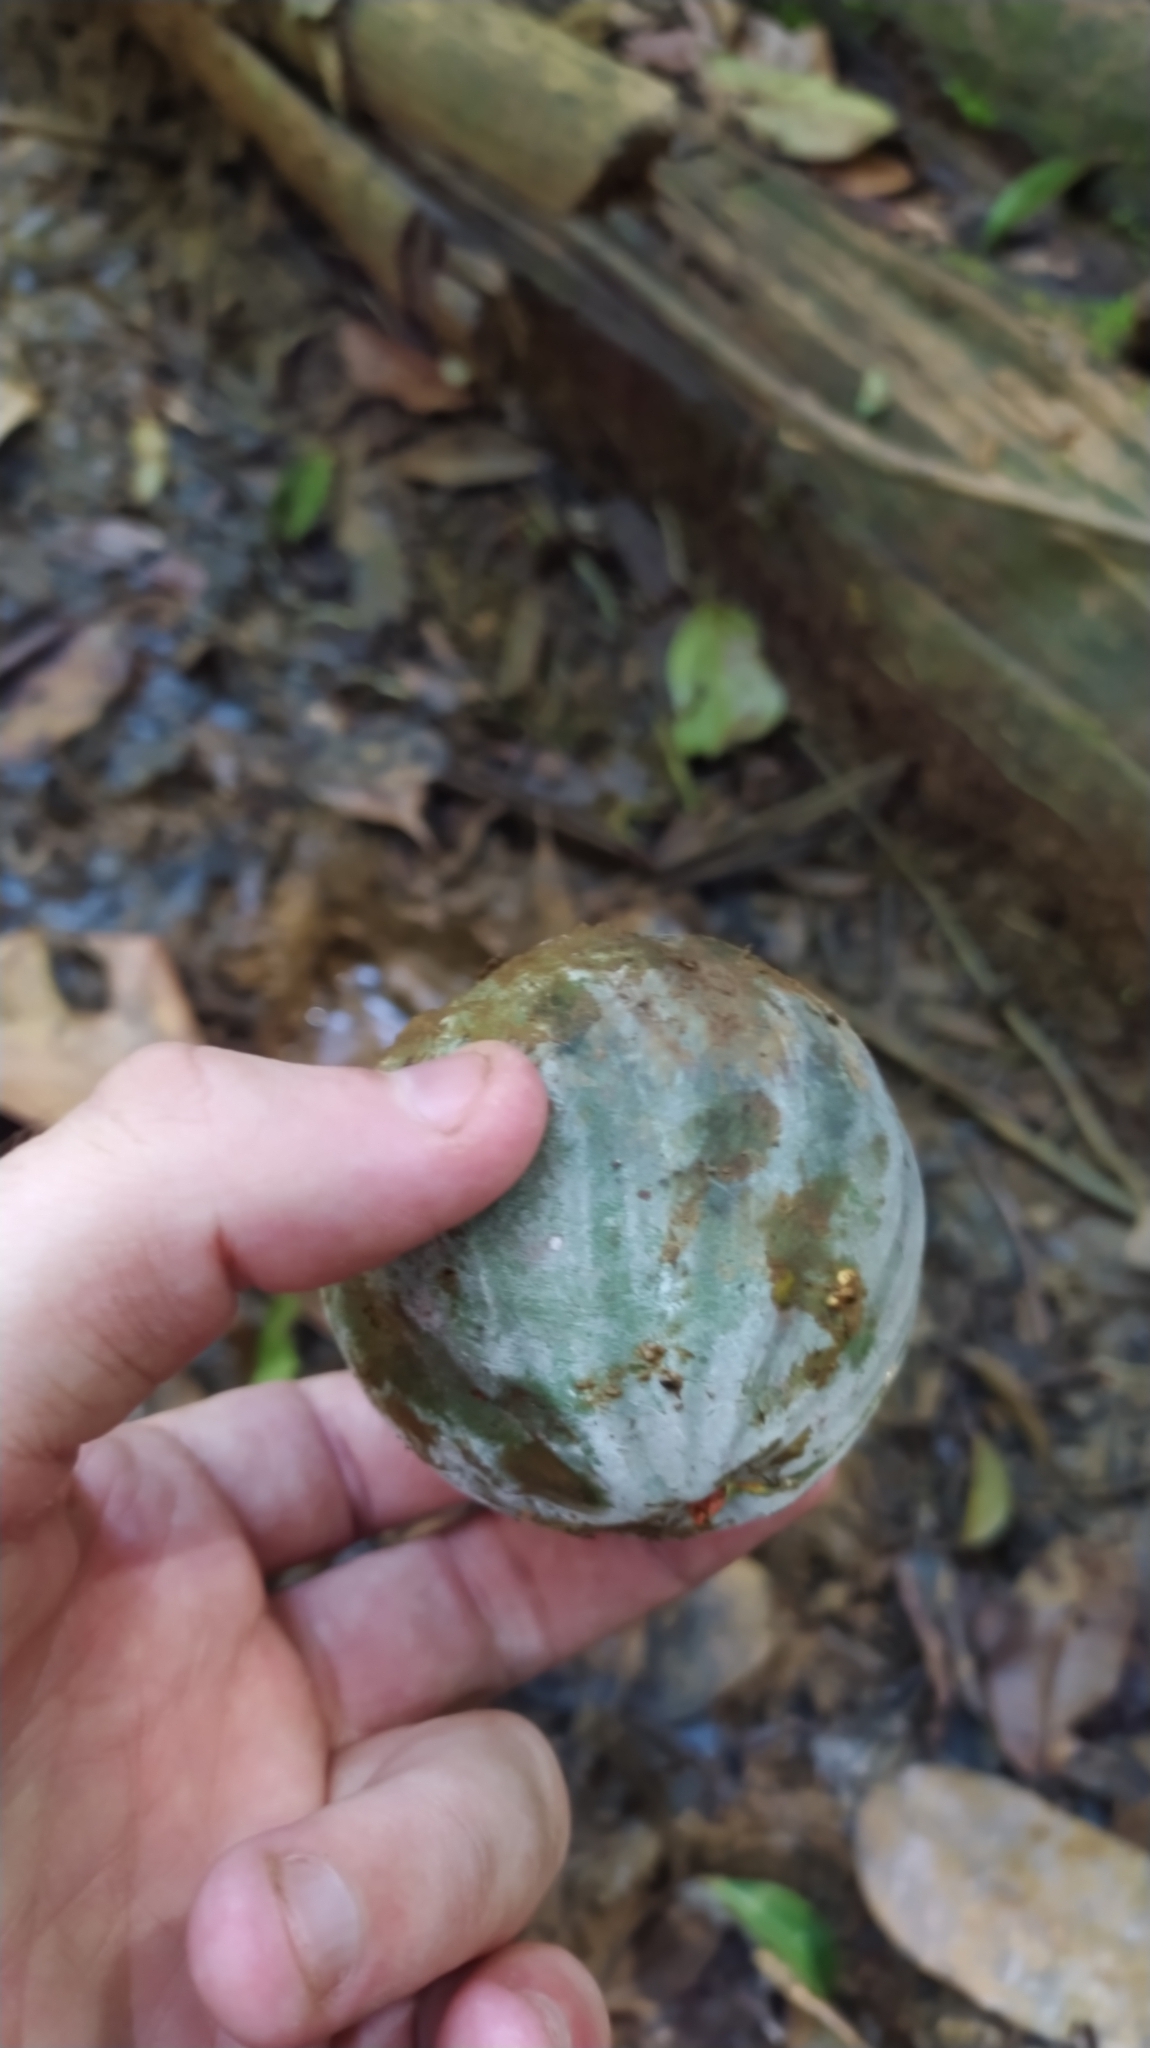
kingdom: Plantae
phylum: Tracheophyta
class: Magnoliopsida
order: Malpighiales
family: Clusiaceae
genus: Moronobea
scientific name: Moronobea coccinea
